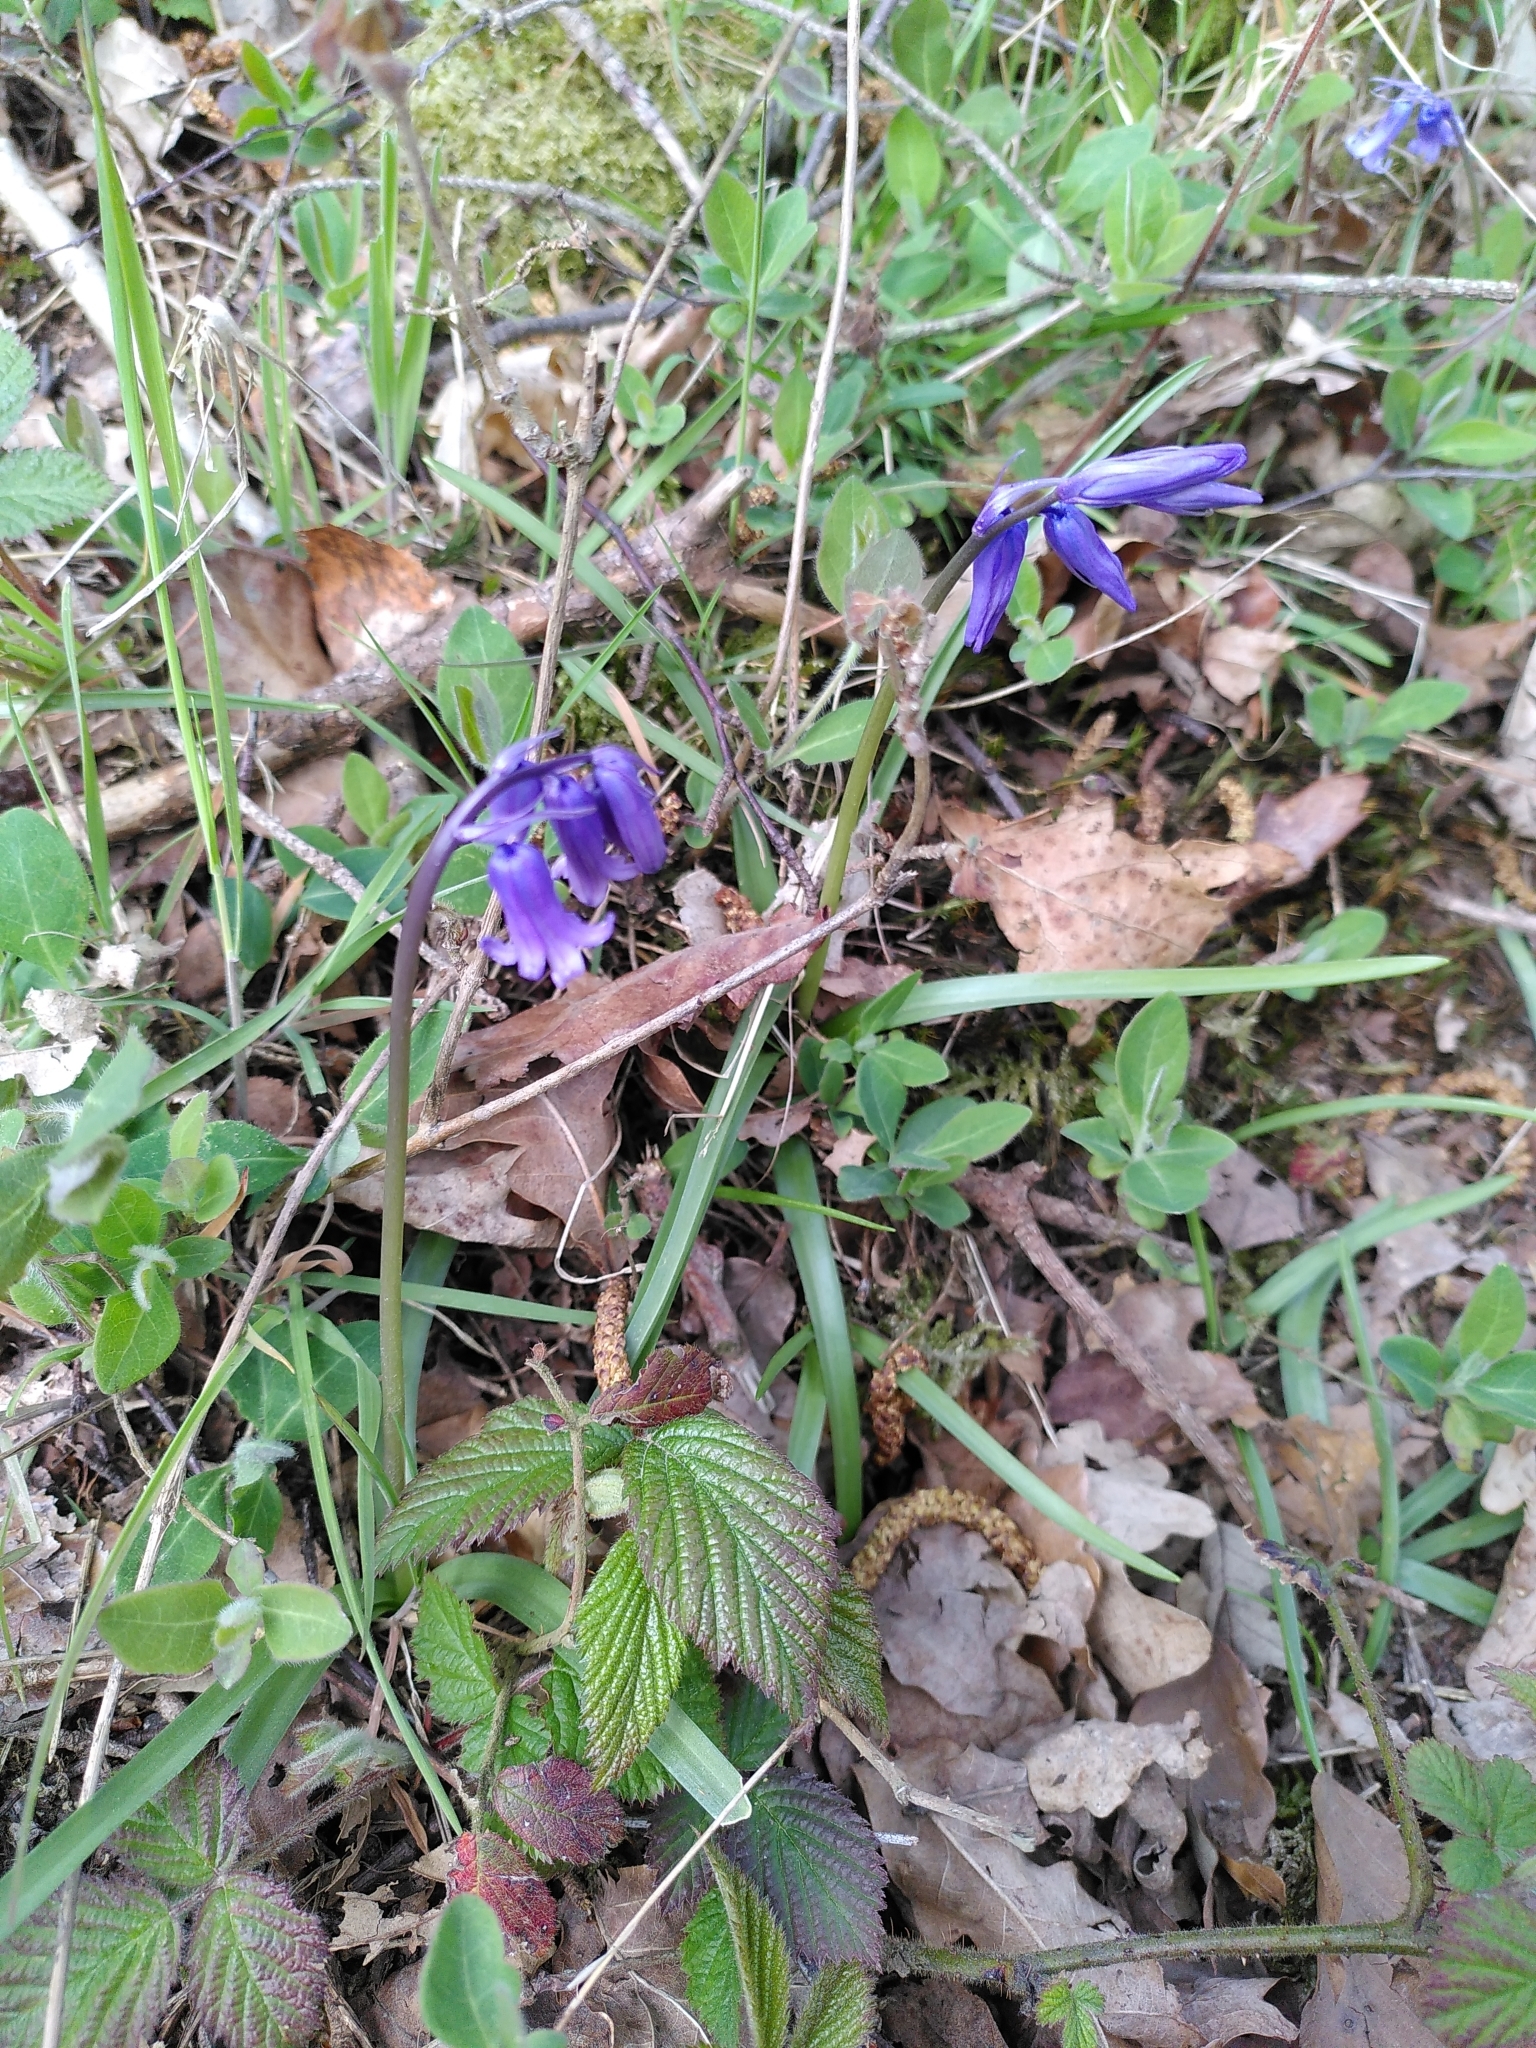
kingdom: Plantae
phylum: Tracheophyta
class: Liliopsida
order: Asparagales
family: Asparagaceae
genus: Hyacinthoides
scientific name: Hyacinthoides non-scripta
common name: Bluebell
